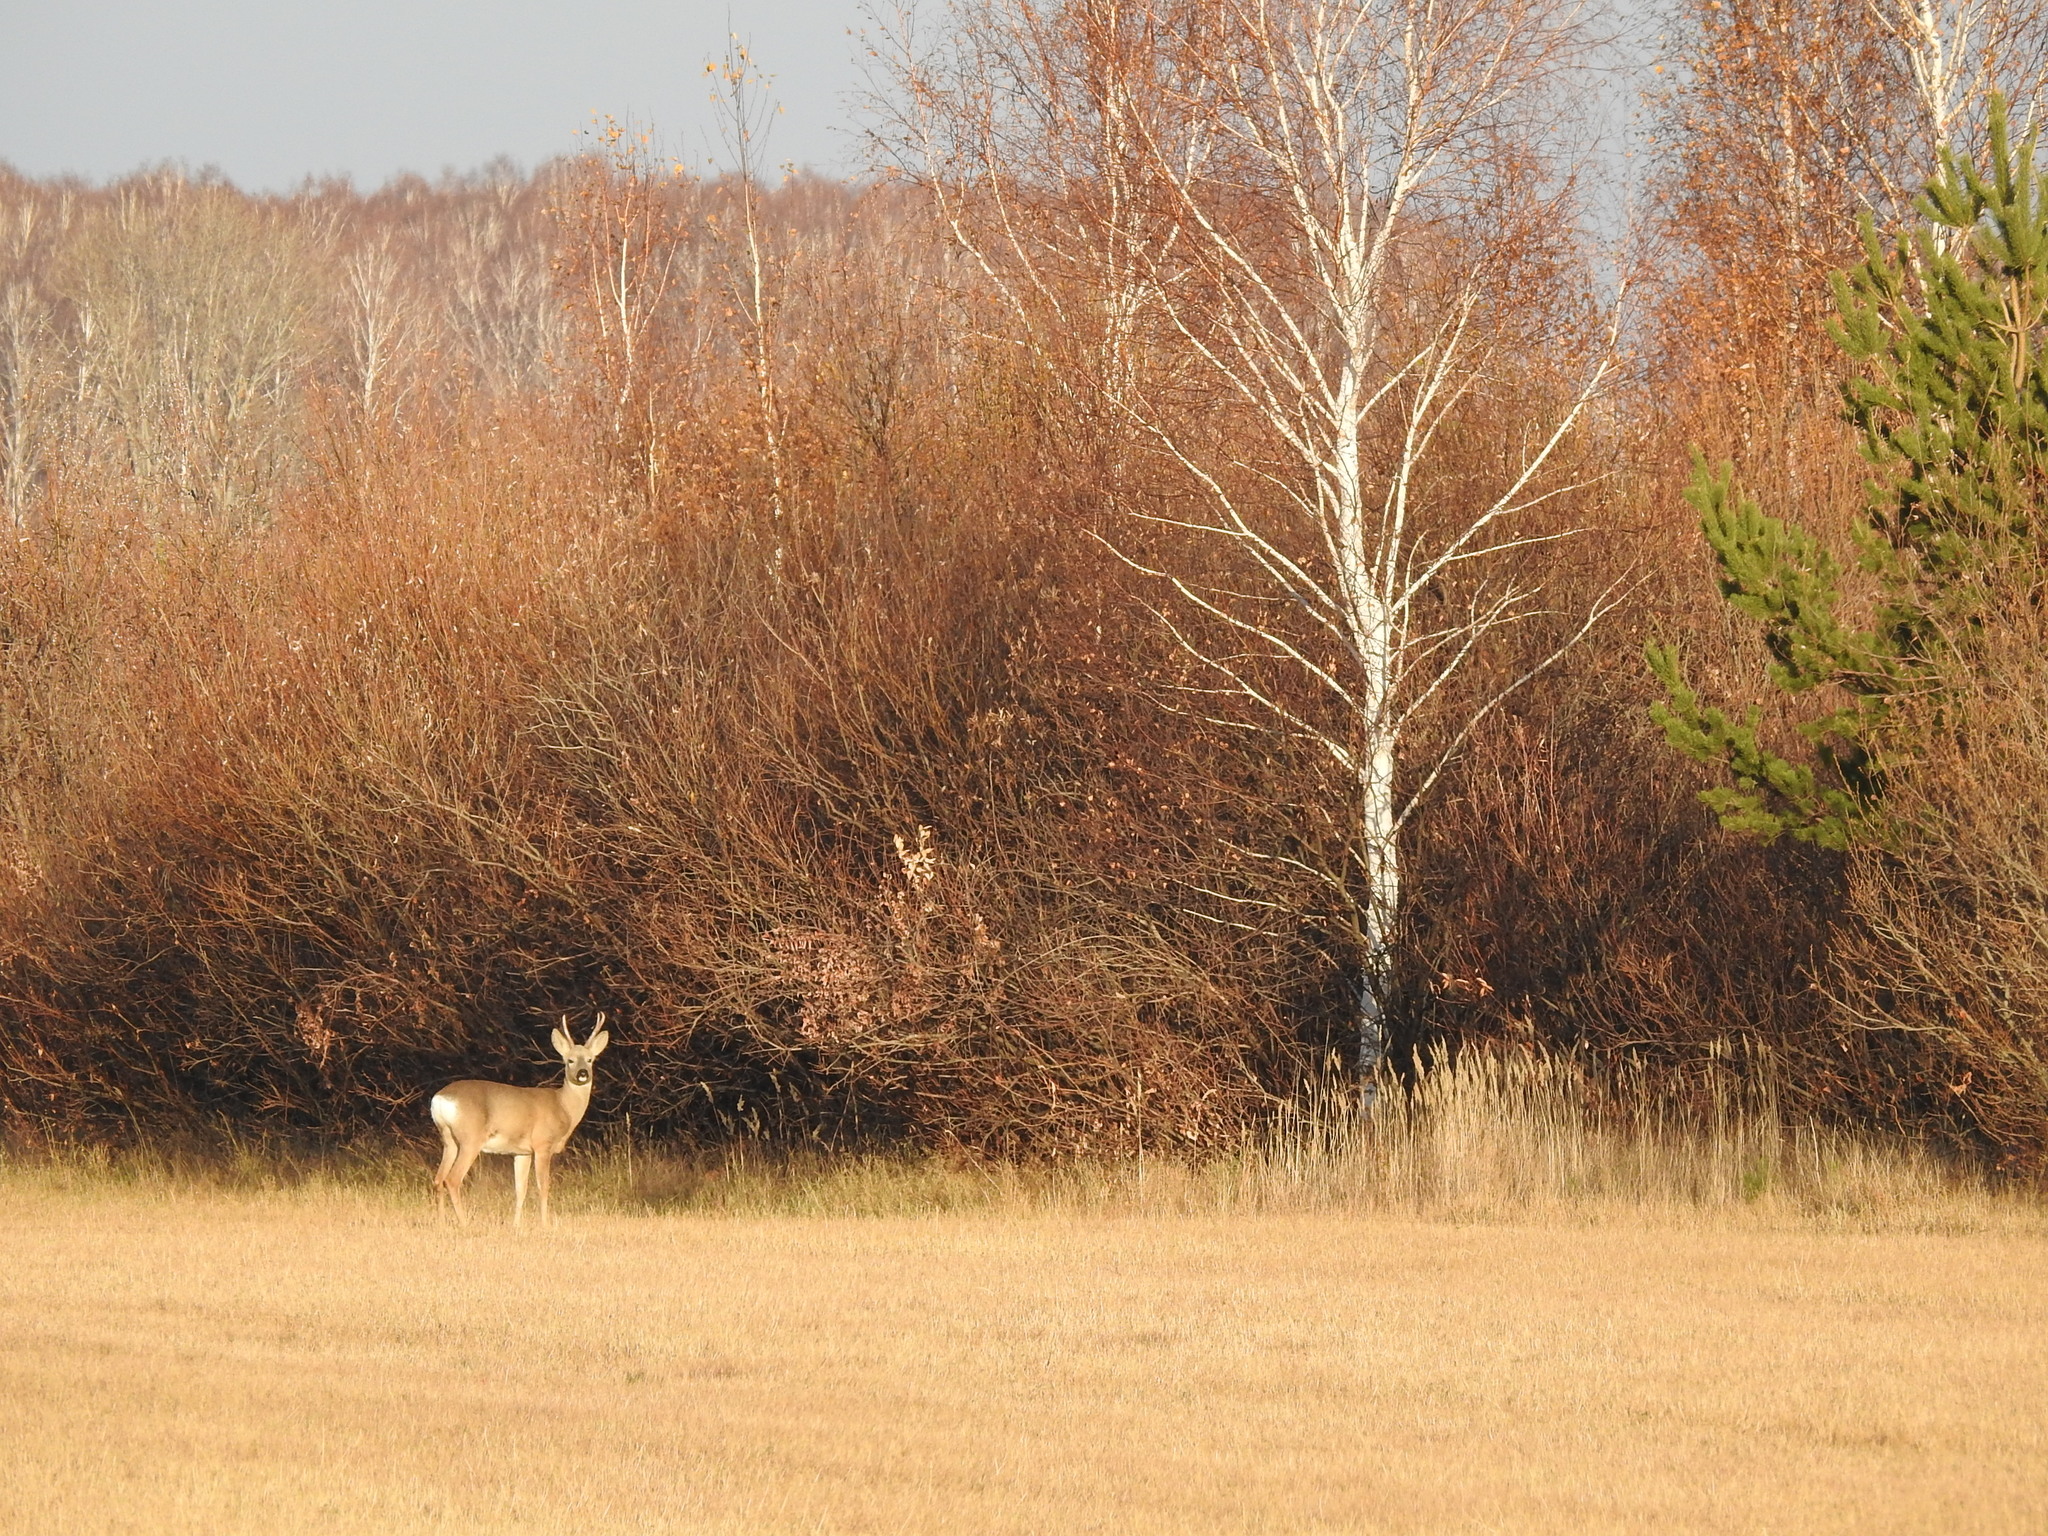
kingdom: Animalia
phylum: Chordata
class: Mammalia
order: Artiodactyla
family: Cervidae
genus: Capreolus
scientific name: Capreolus pygargus
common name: Siberian roe
